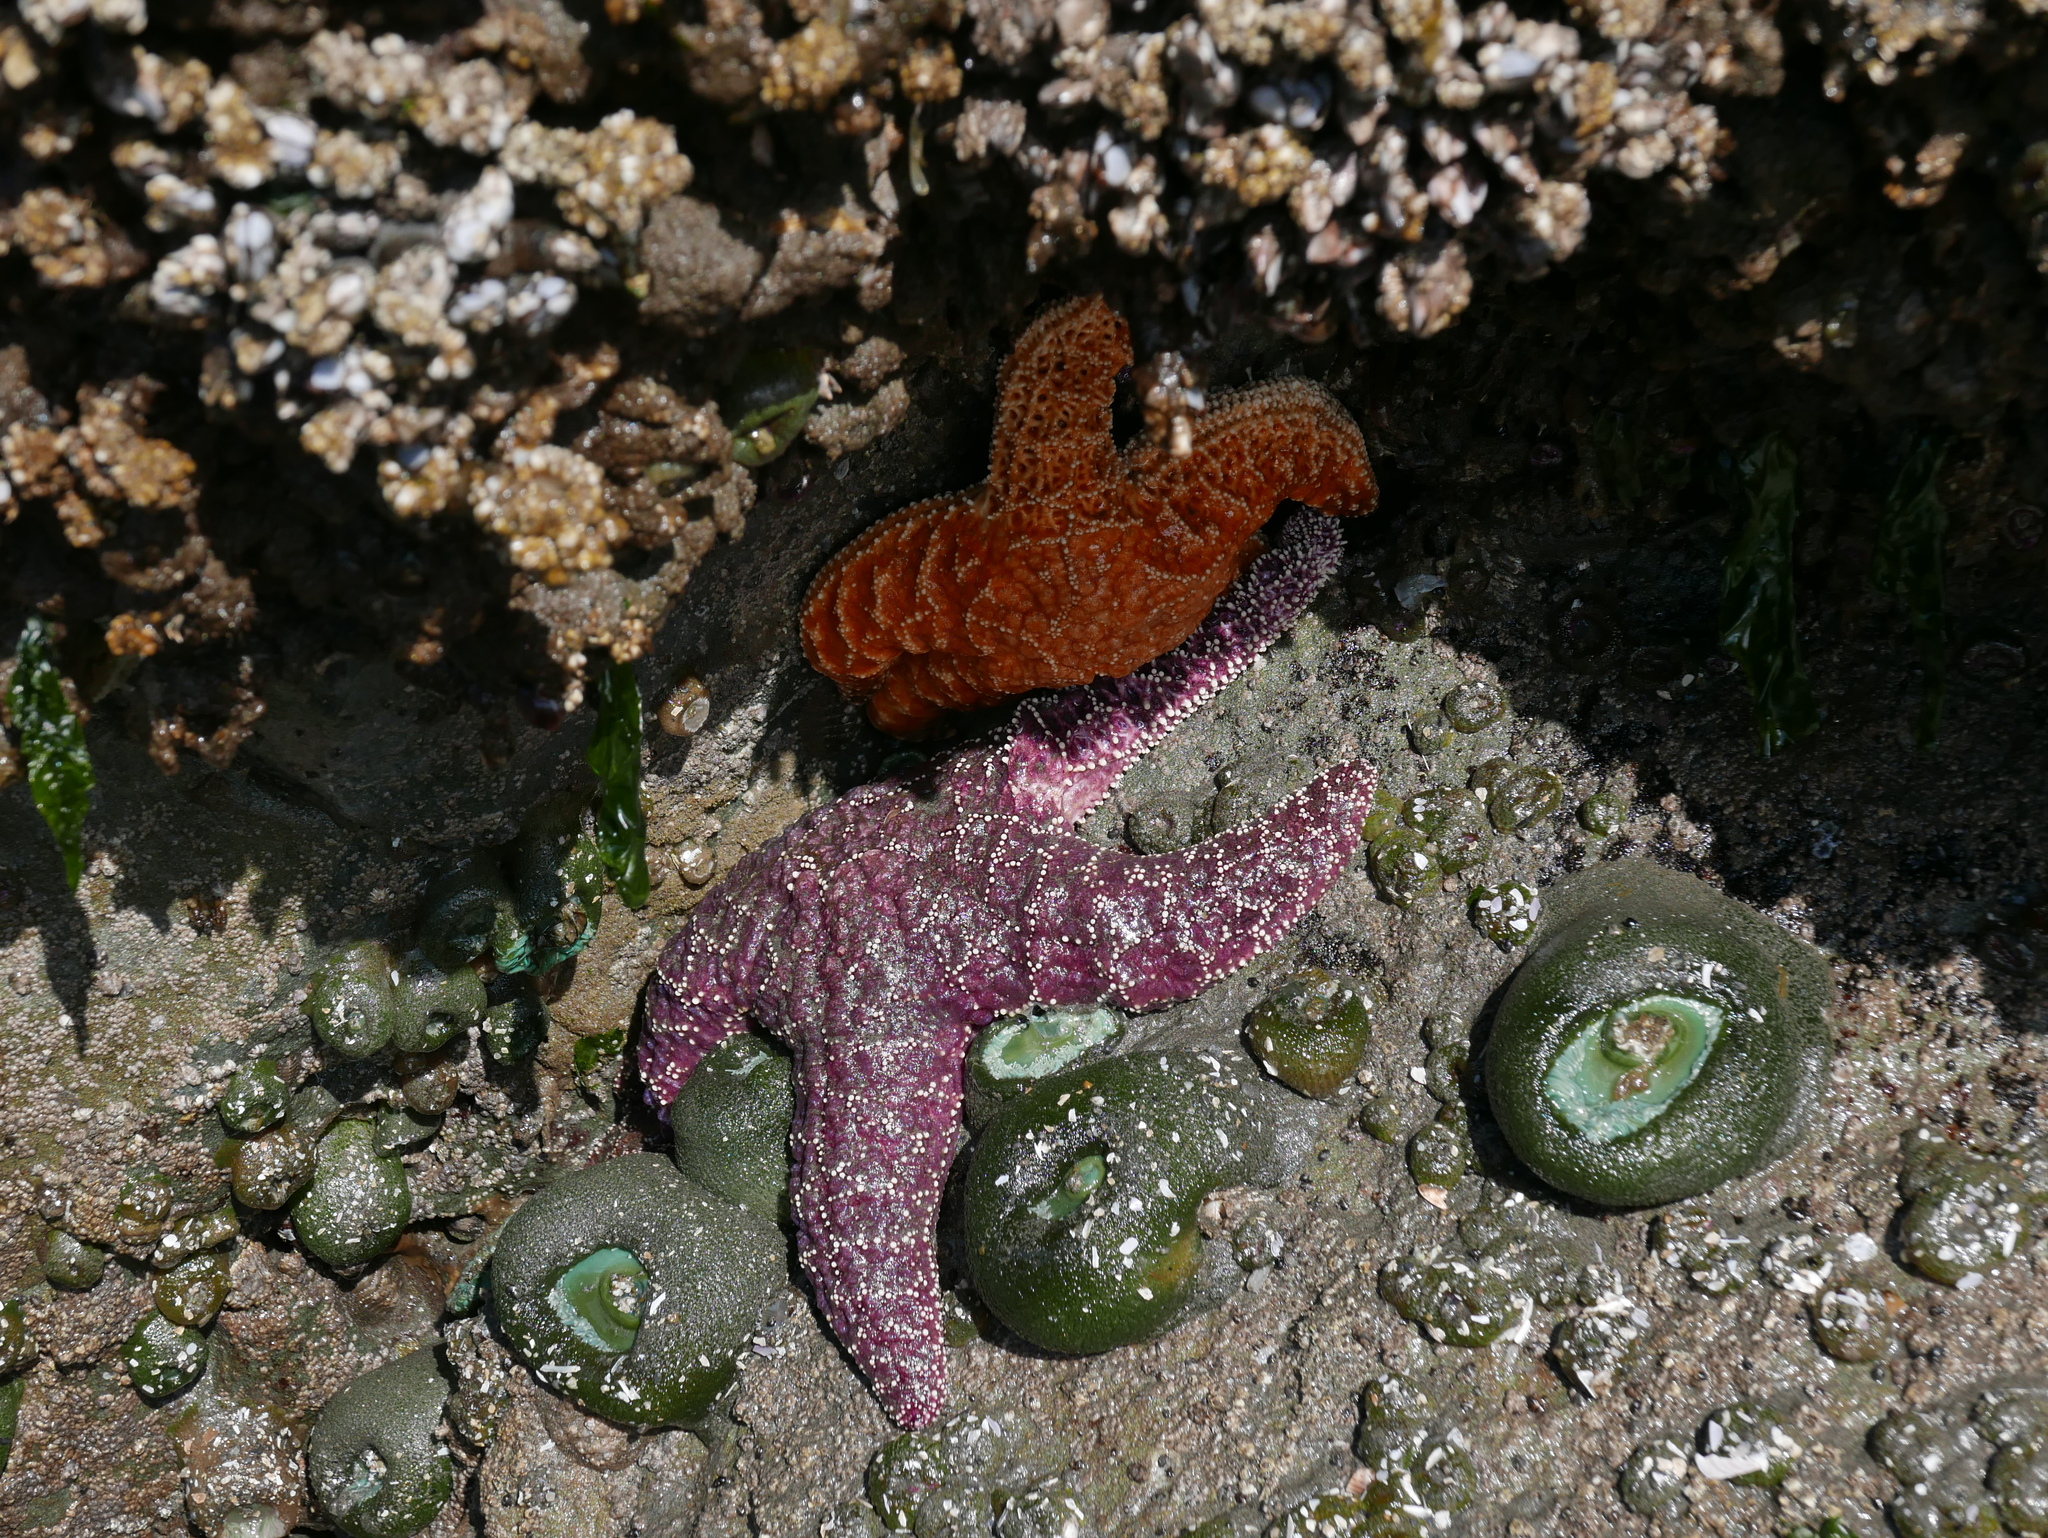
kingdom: Animalia
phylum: Echinodermata
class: Asteroidea
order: Forcipulatida
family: Asteriidae
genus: Pisaster
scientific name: Pisaster ochraceus
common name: Ochre stars
